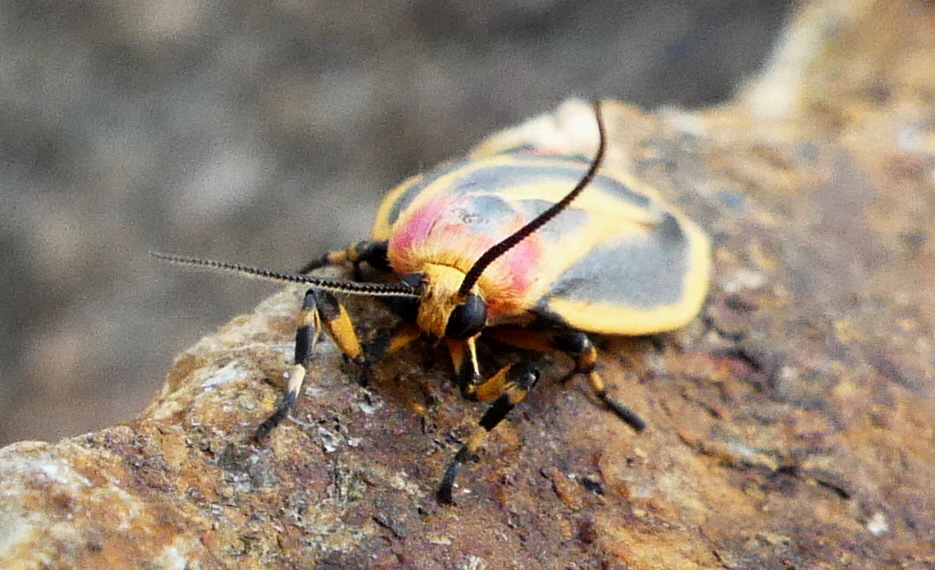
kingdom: Animalia
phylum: Arthropoda
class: Insecta
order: Lepidoptera
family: Erebidae
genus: Hypoprepia
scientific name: Hypoprepia fucosa
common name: Painted lichen moth
